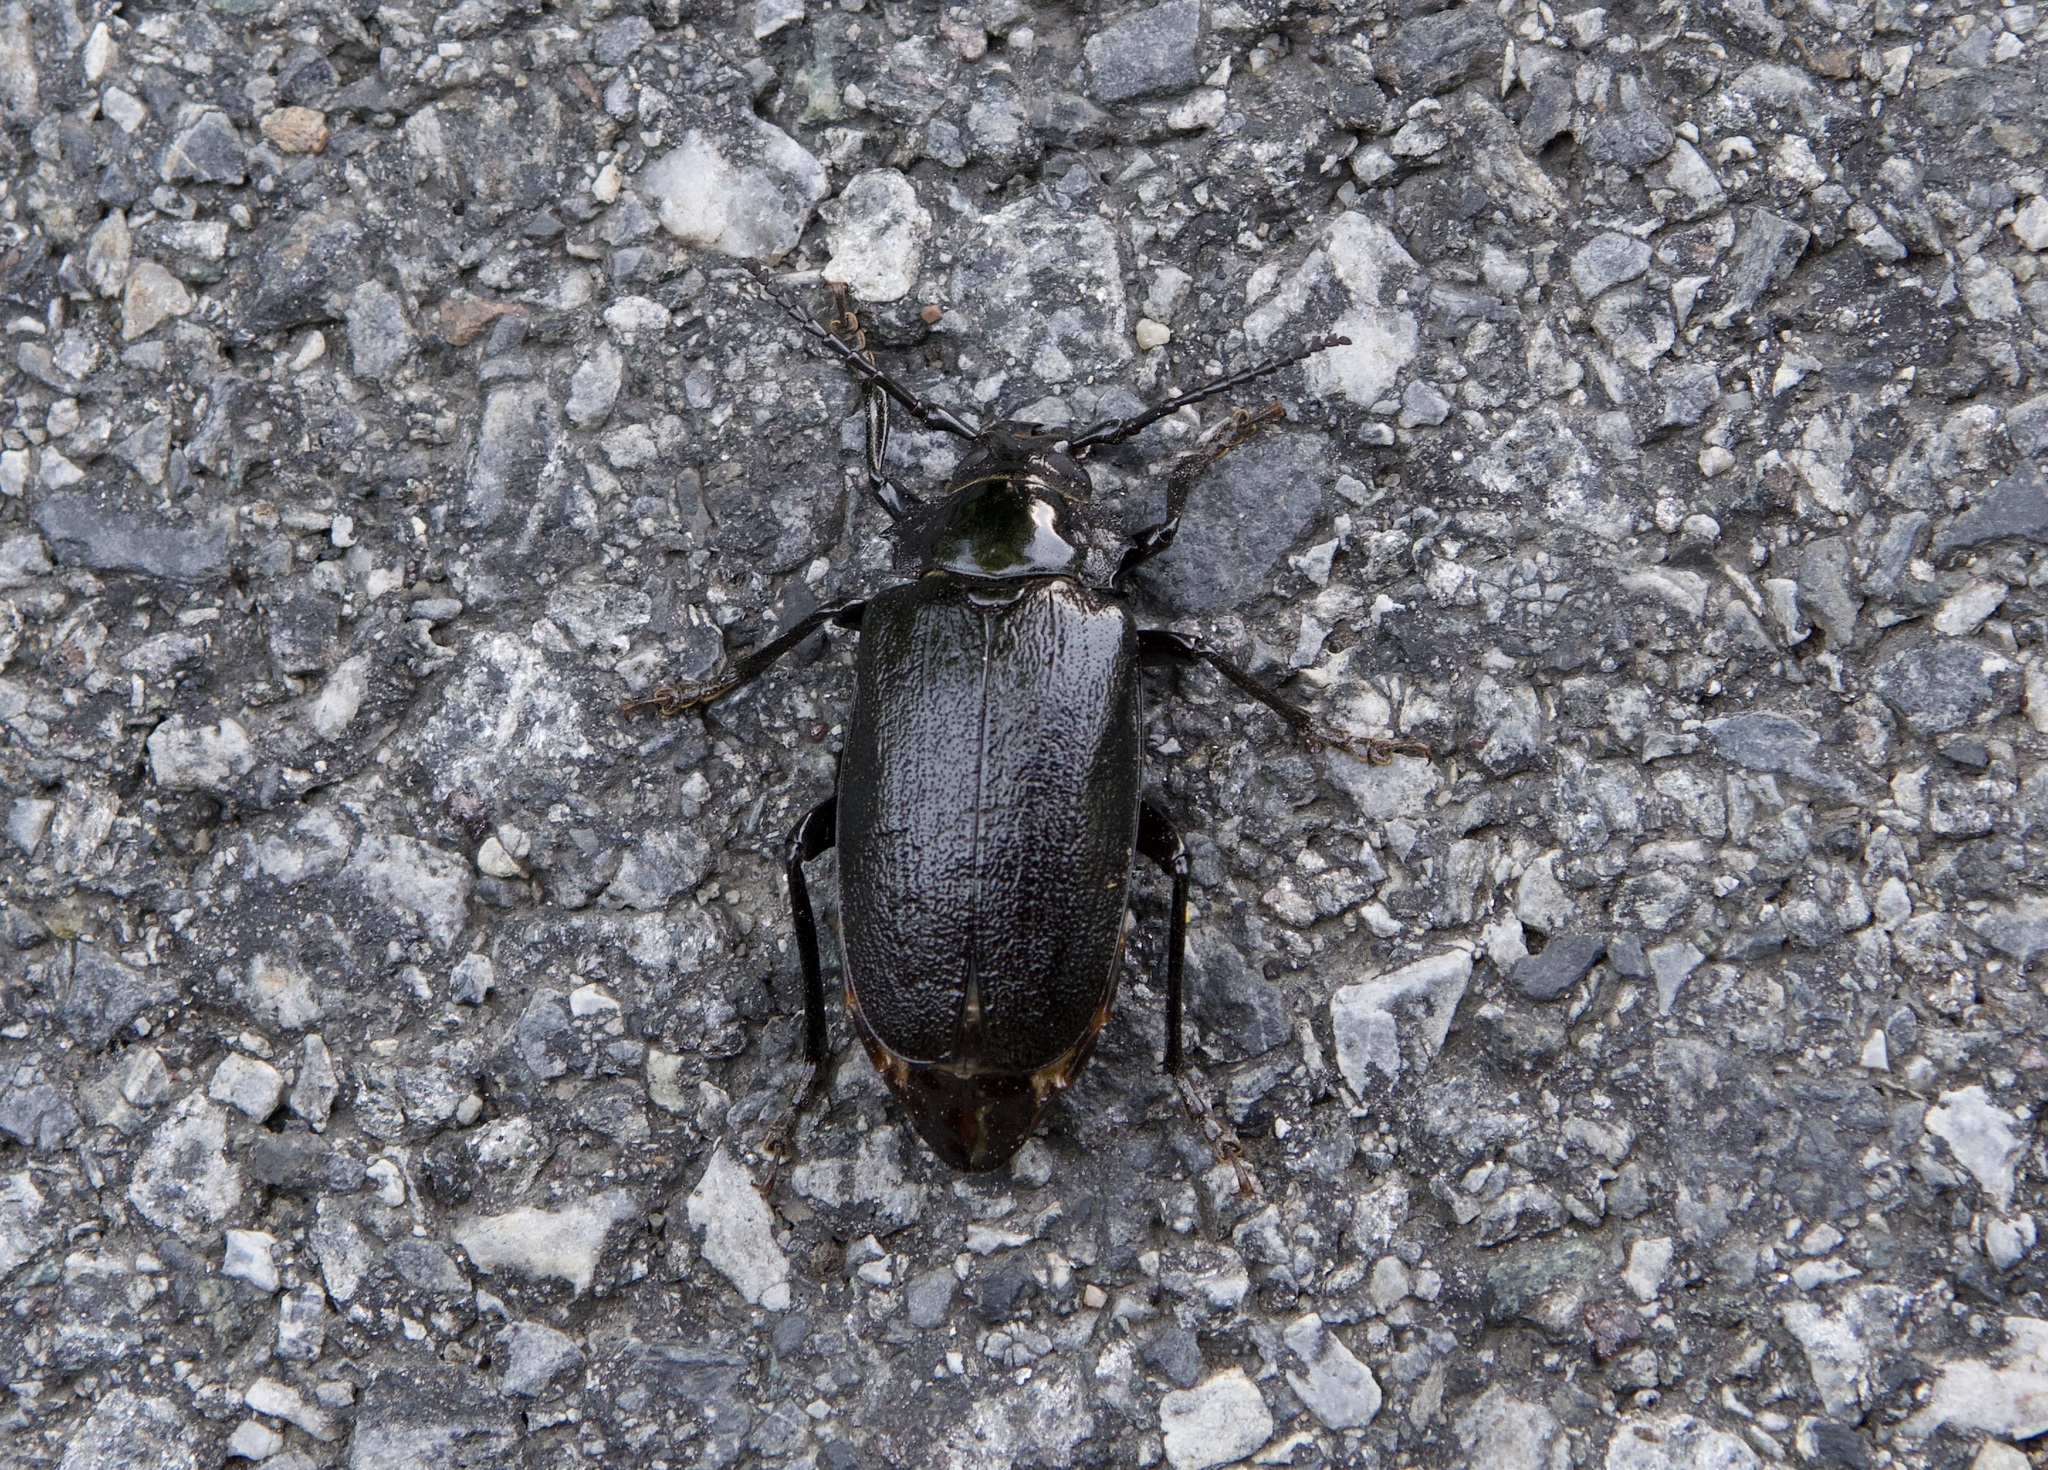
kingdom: Animalia
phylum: Arthropoda
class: Insecta
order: Coleoptera
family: Cerambycidae
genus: Prionus
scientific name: Prionus laticollis
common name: Broad necked prionus
